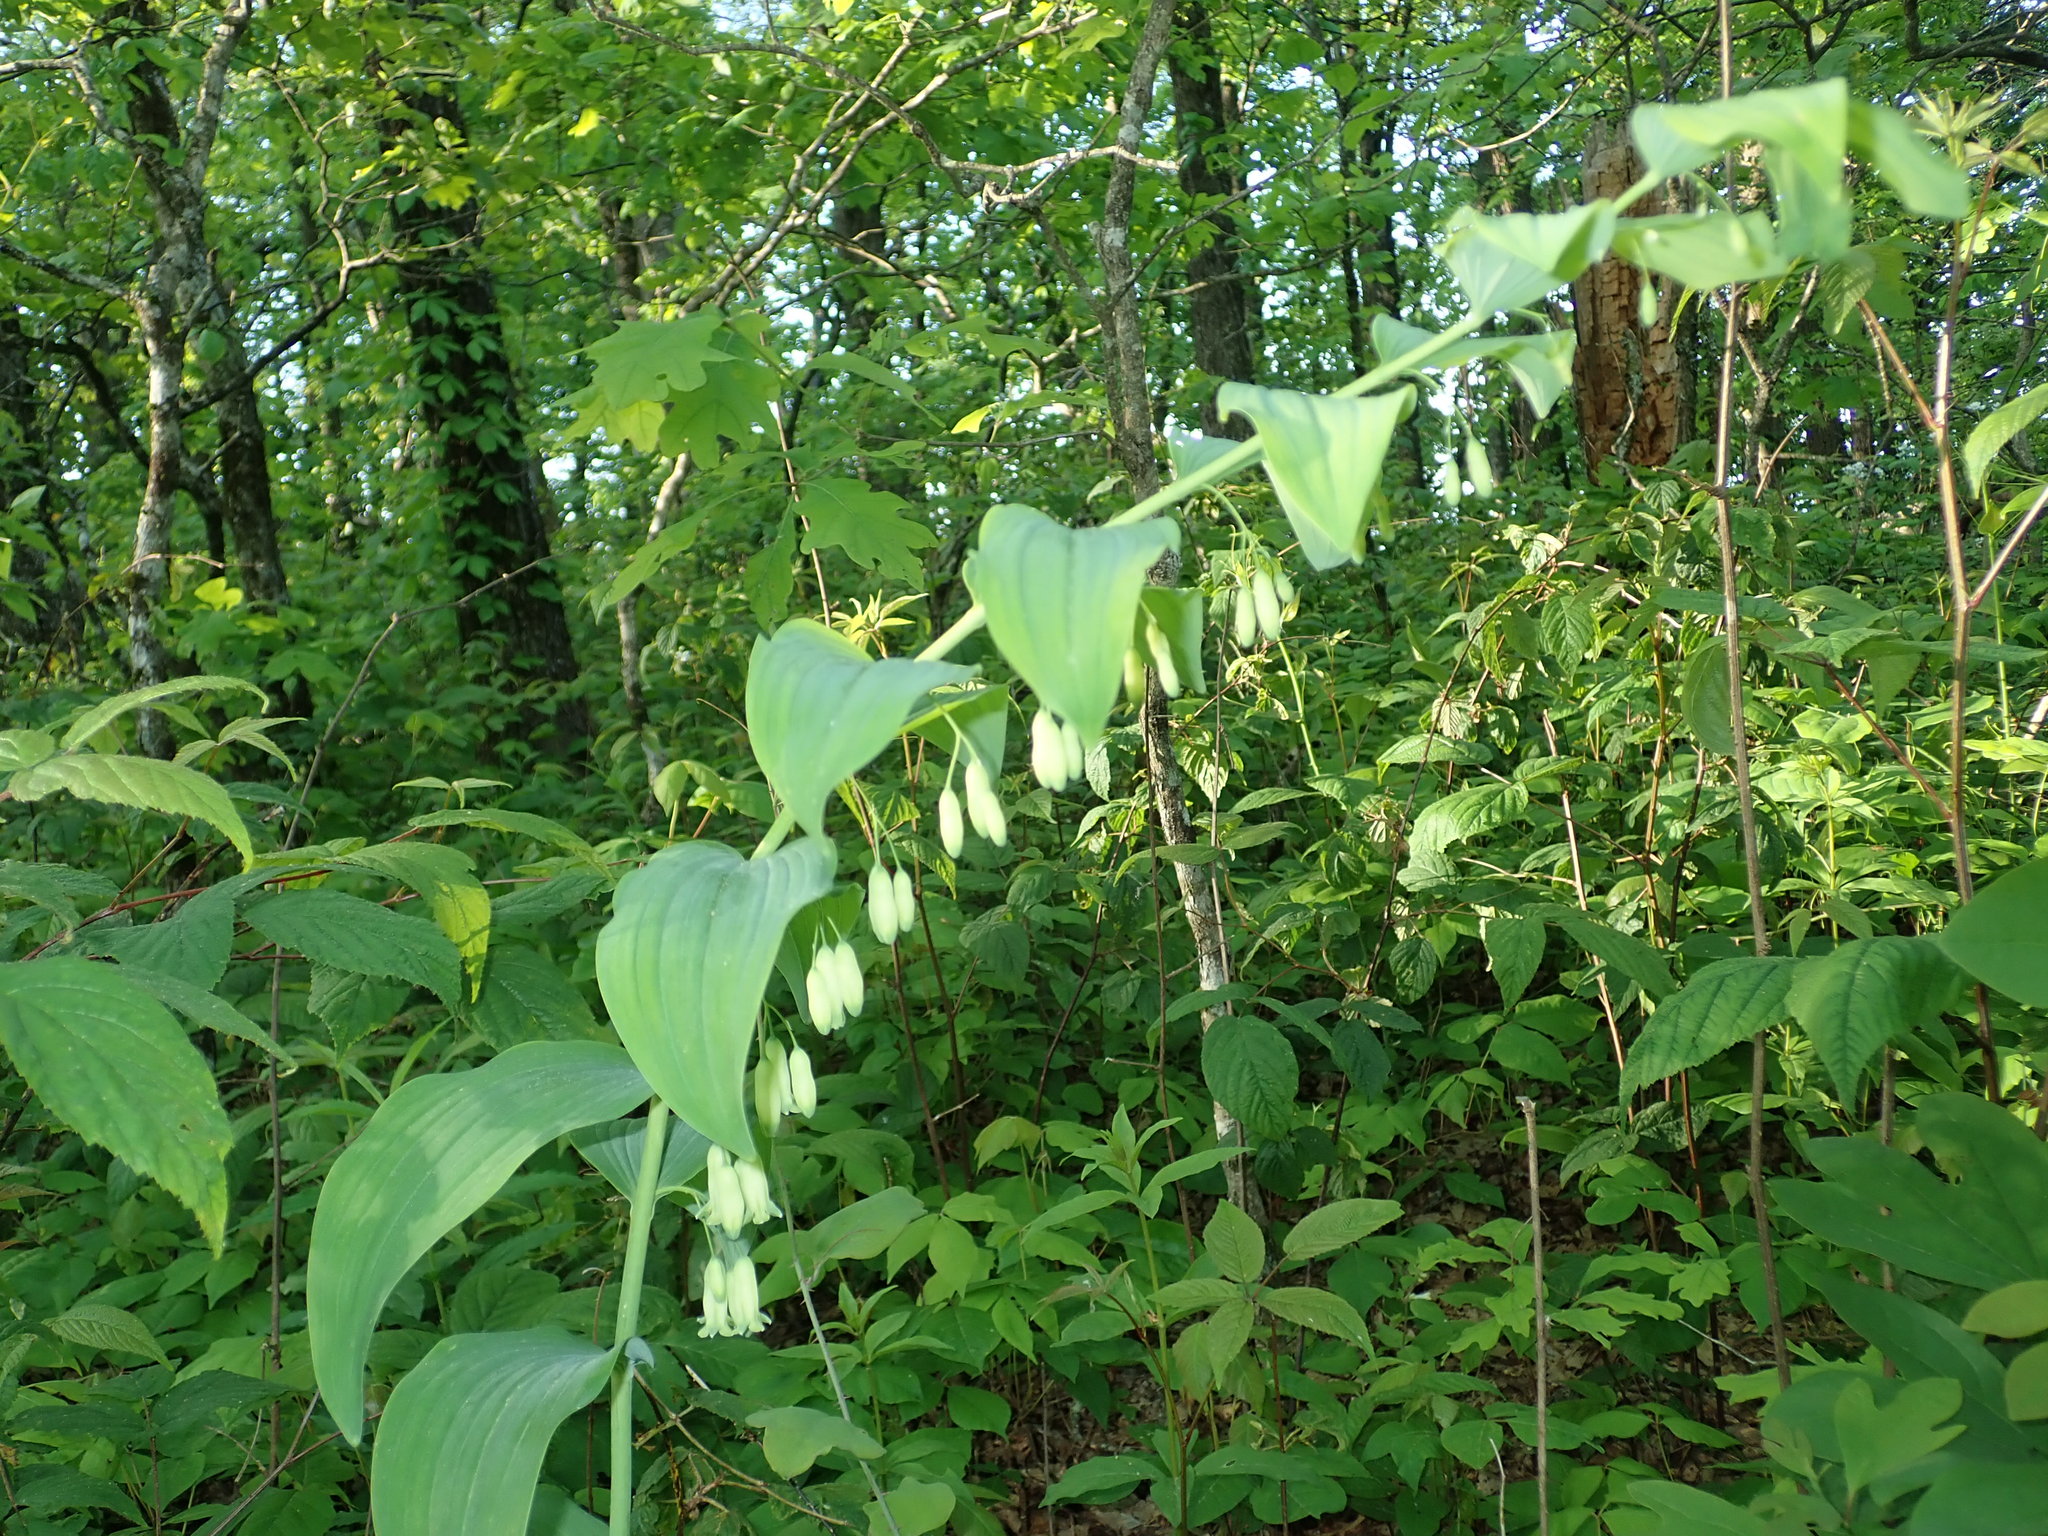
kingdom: Plantae
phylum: Tracheophyta
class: Liliopsida
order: Asparagales
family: Asparagaceae
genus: Polygonatum
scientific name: Polygonatum biflorum
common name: American solomon's-seal
